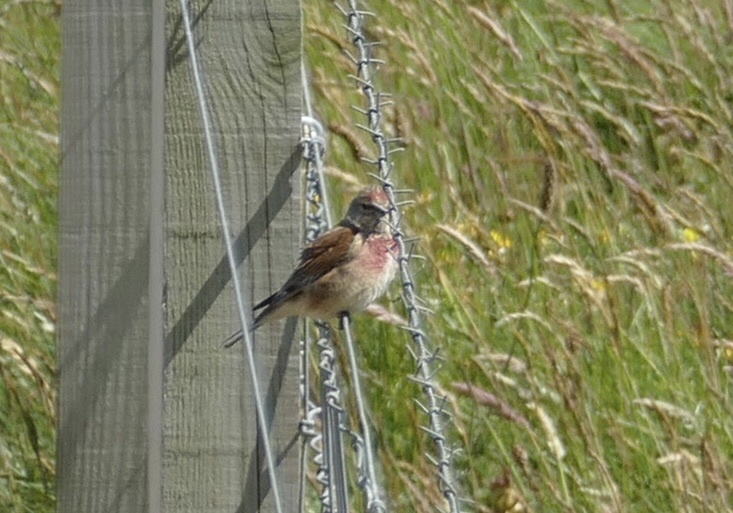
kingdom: Animalia
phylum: Chordata
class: Aves
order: Passeriformes
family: Fringillidae
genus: Linaria
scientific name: Linaria cannabina
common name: Common linnet
